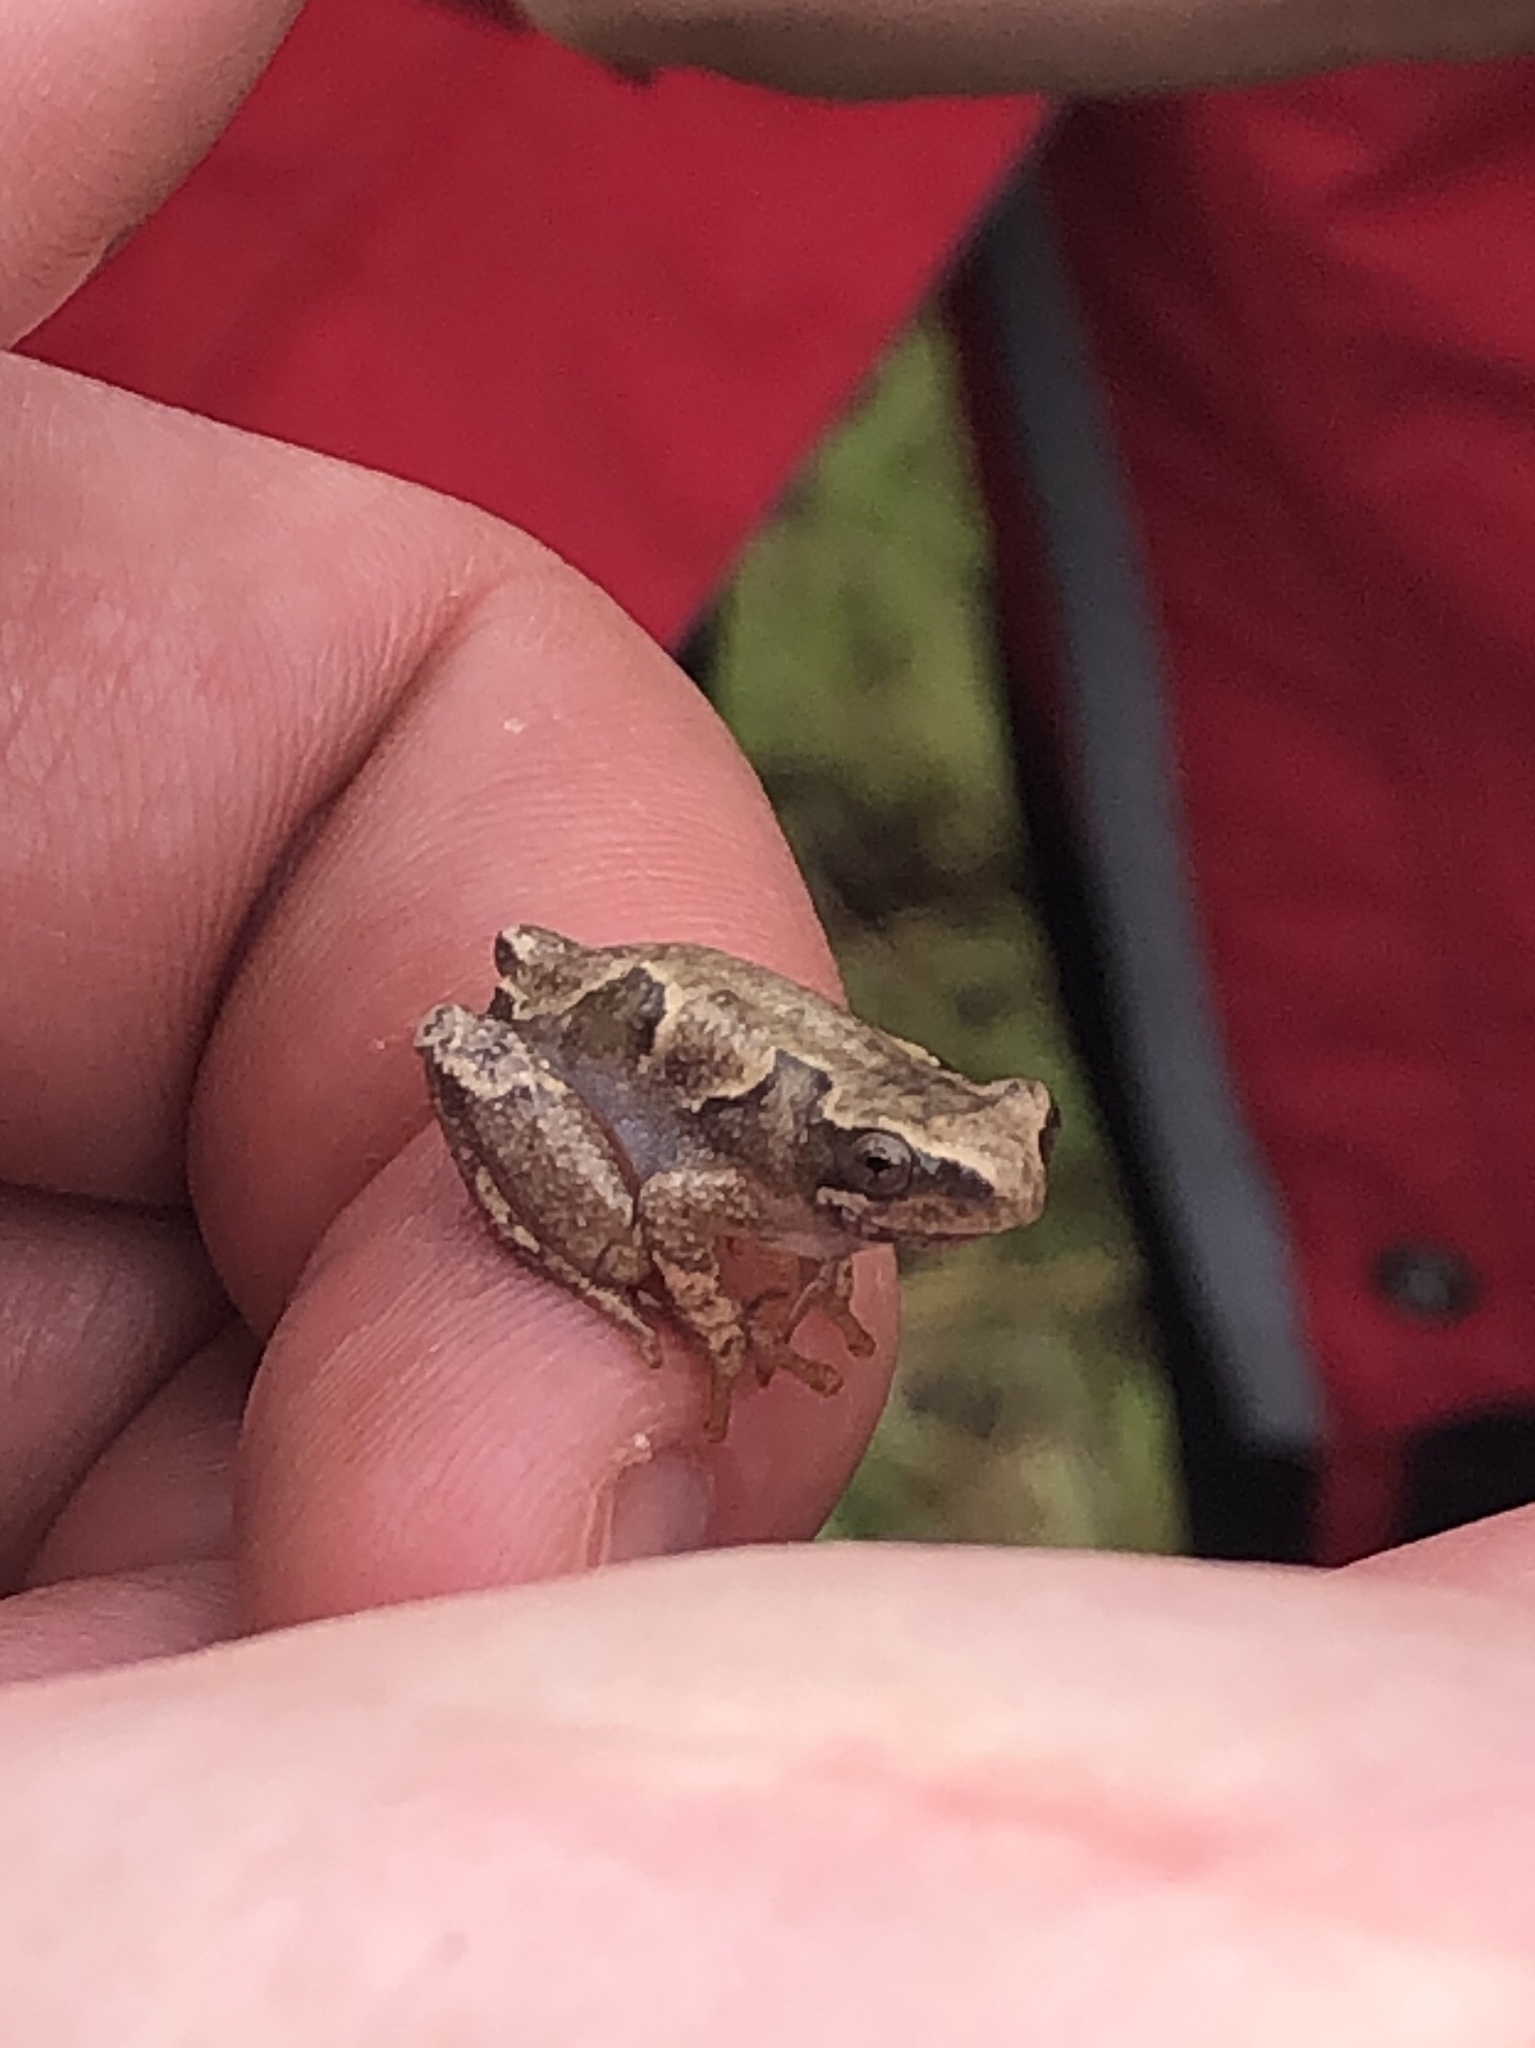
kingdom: Animalia
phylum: Chordata
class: Amphibia
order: Anura
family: Hyperoliidae
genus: Hyperolius
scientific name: Hyperolius viridiflavus
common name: Common reed frog
